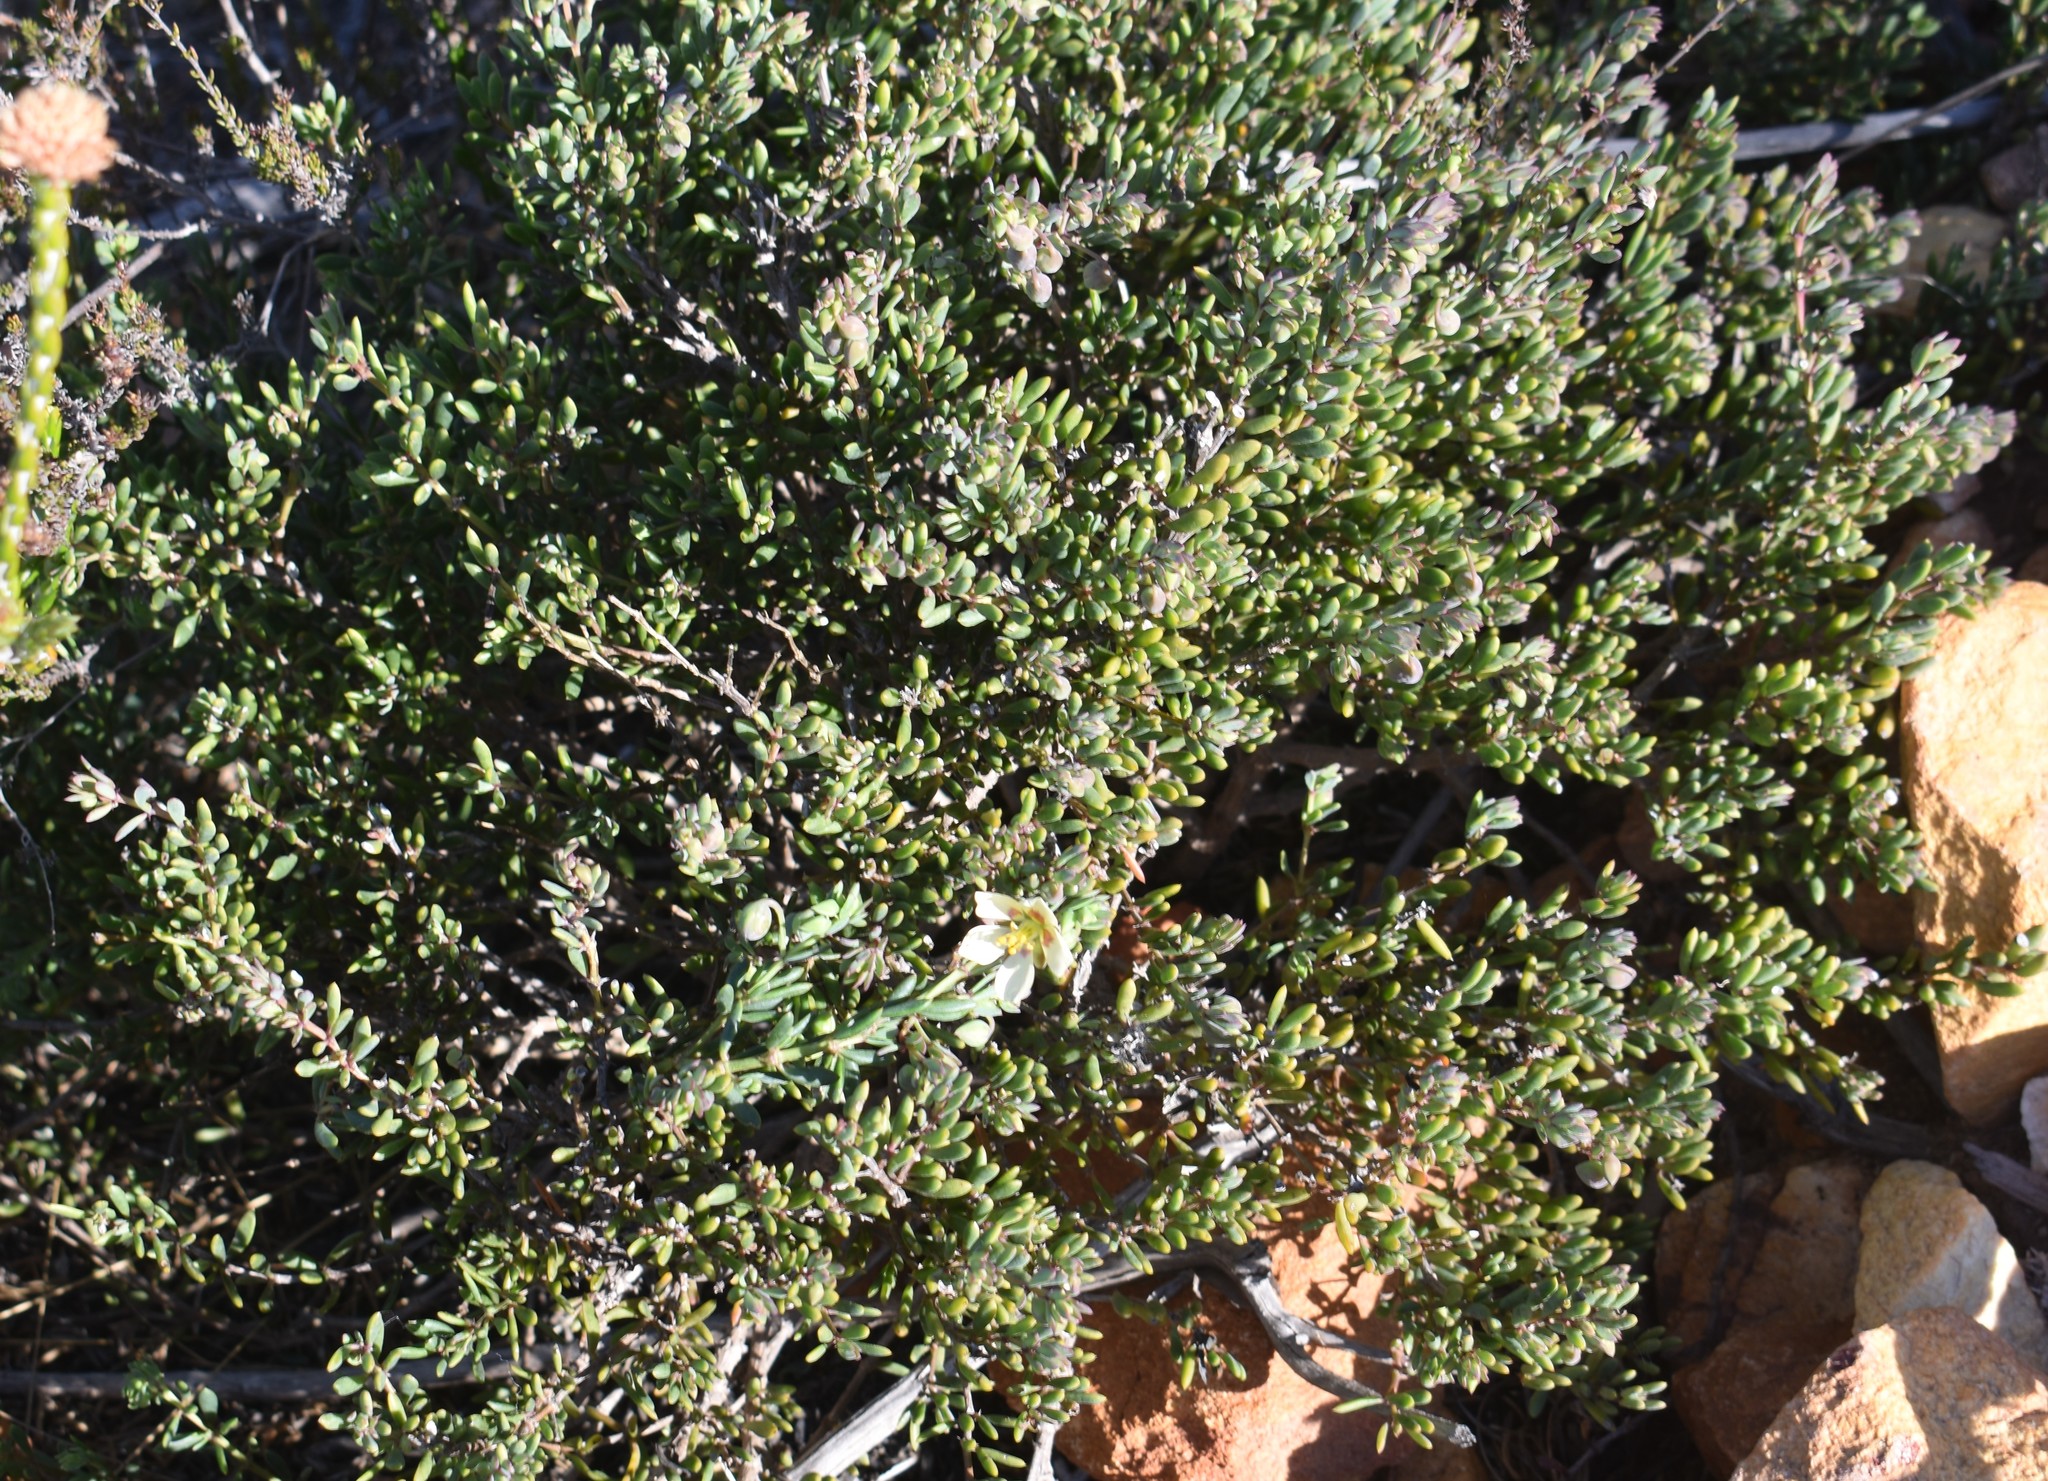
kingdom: Plantae
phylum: Tracheophyta
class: Magnoliopsida
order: Zygophyllales
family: Zygophyllaceae
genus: Roepera
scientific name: Roepera fulva
